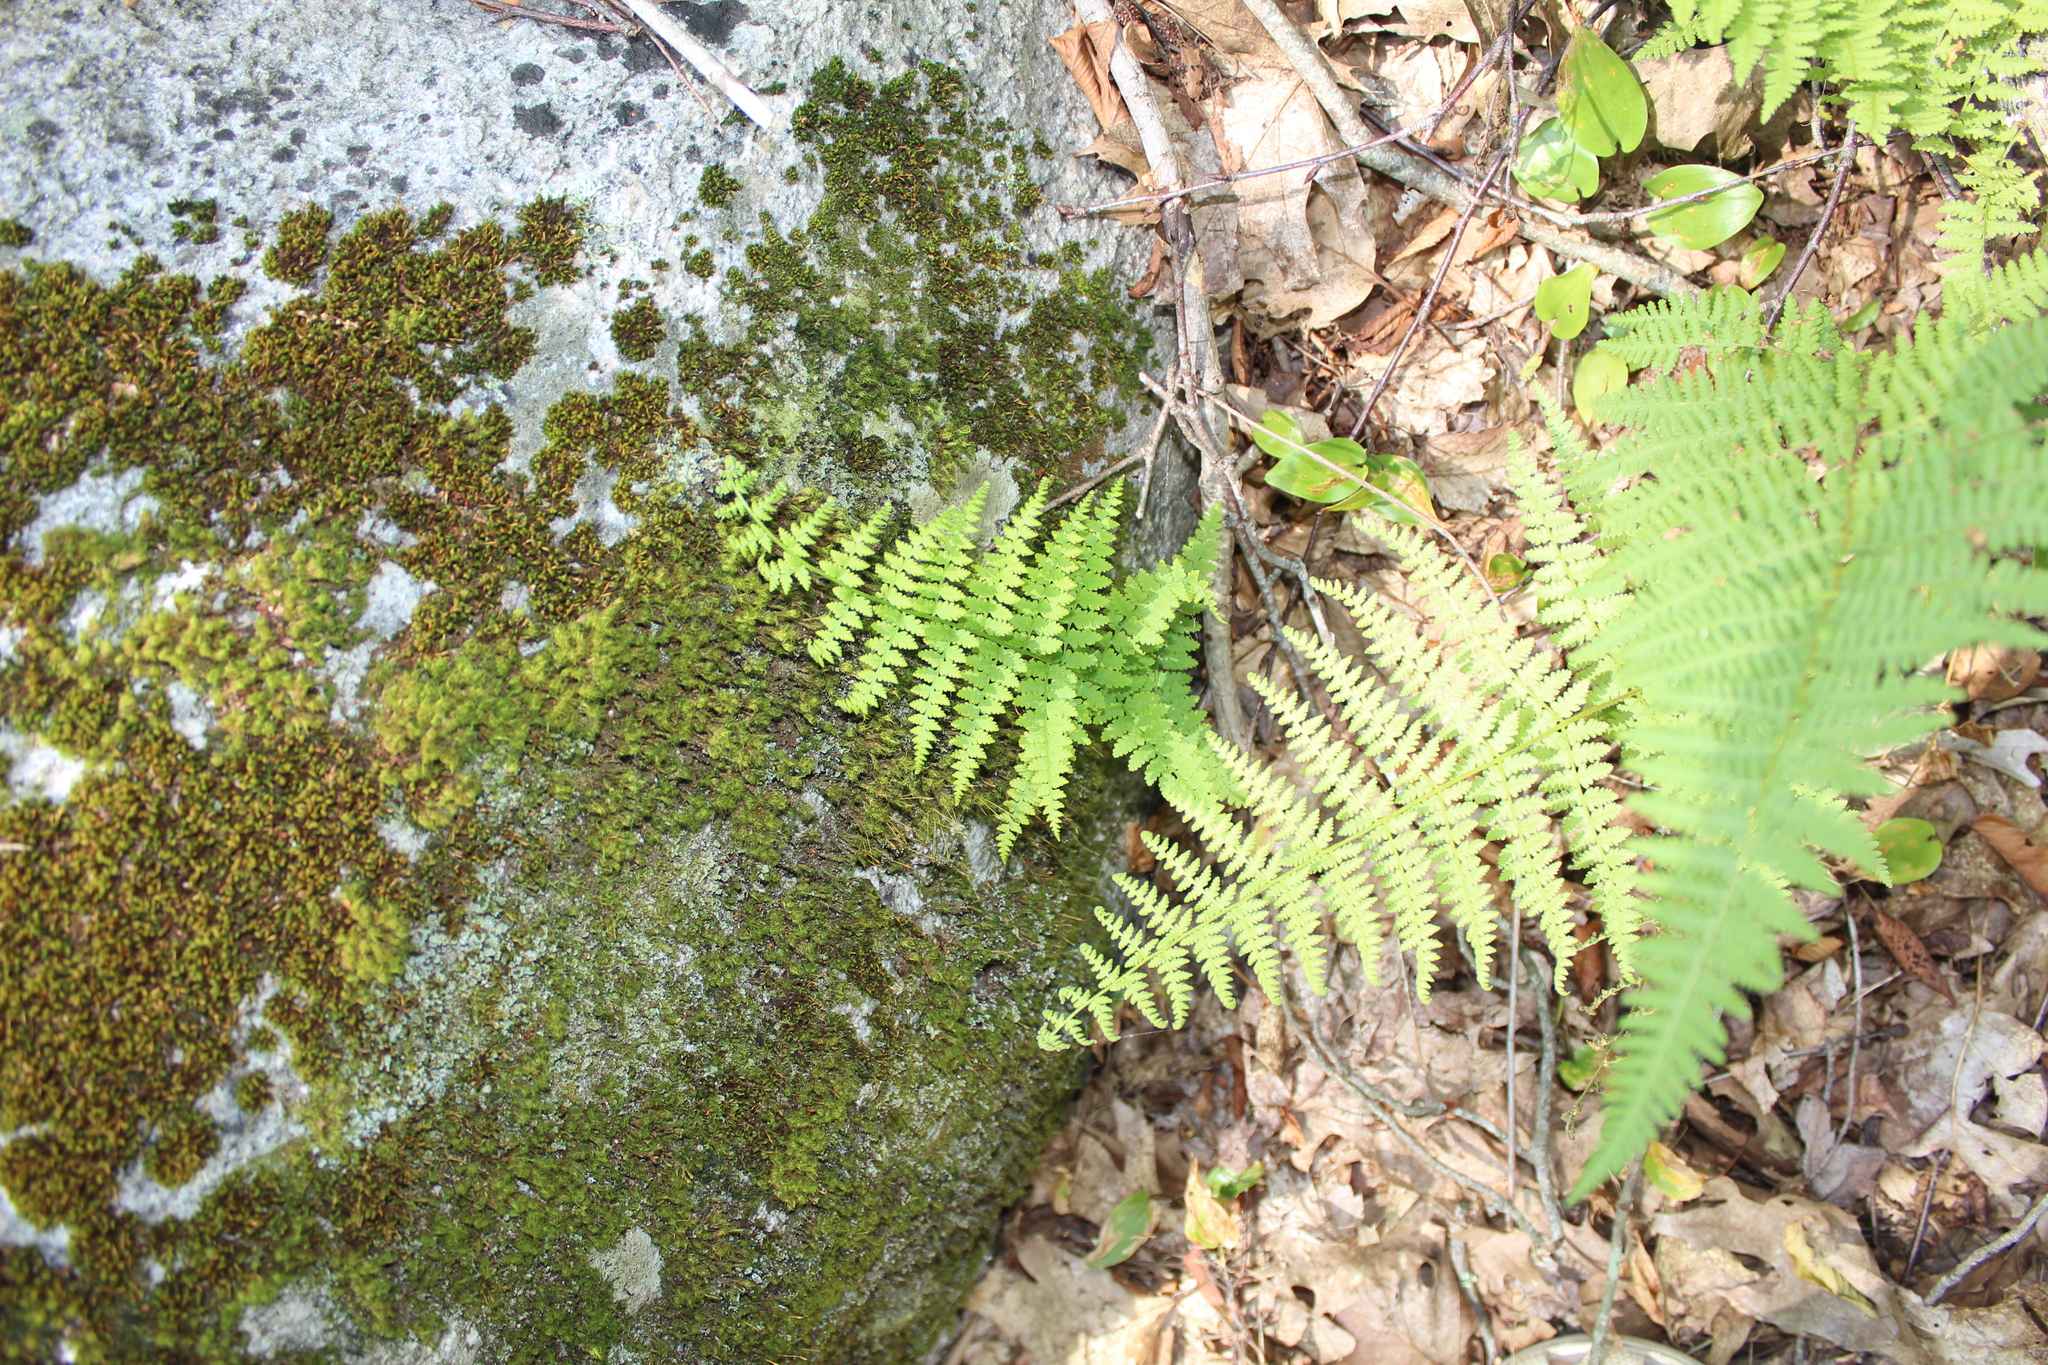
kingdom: Plantae
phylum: Tracheophyta
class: Polypodiopsida
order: Polypodiales
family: Dennstaedtiaceae
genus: Sitobolium
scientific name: Sitobolium punctilobum
